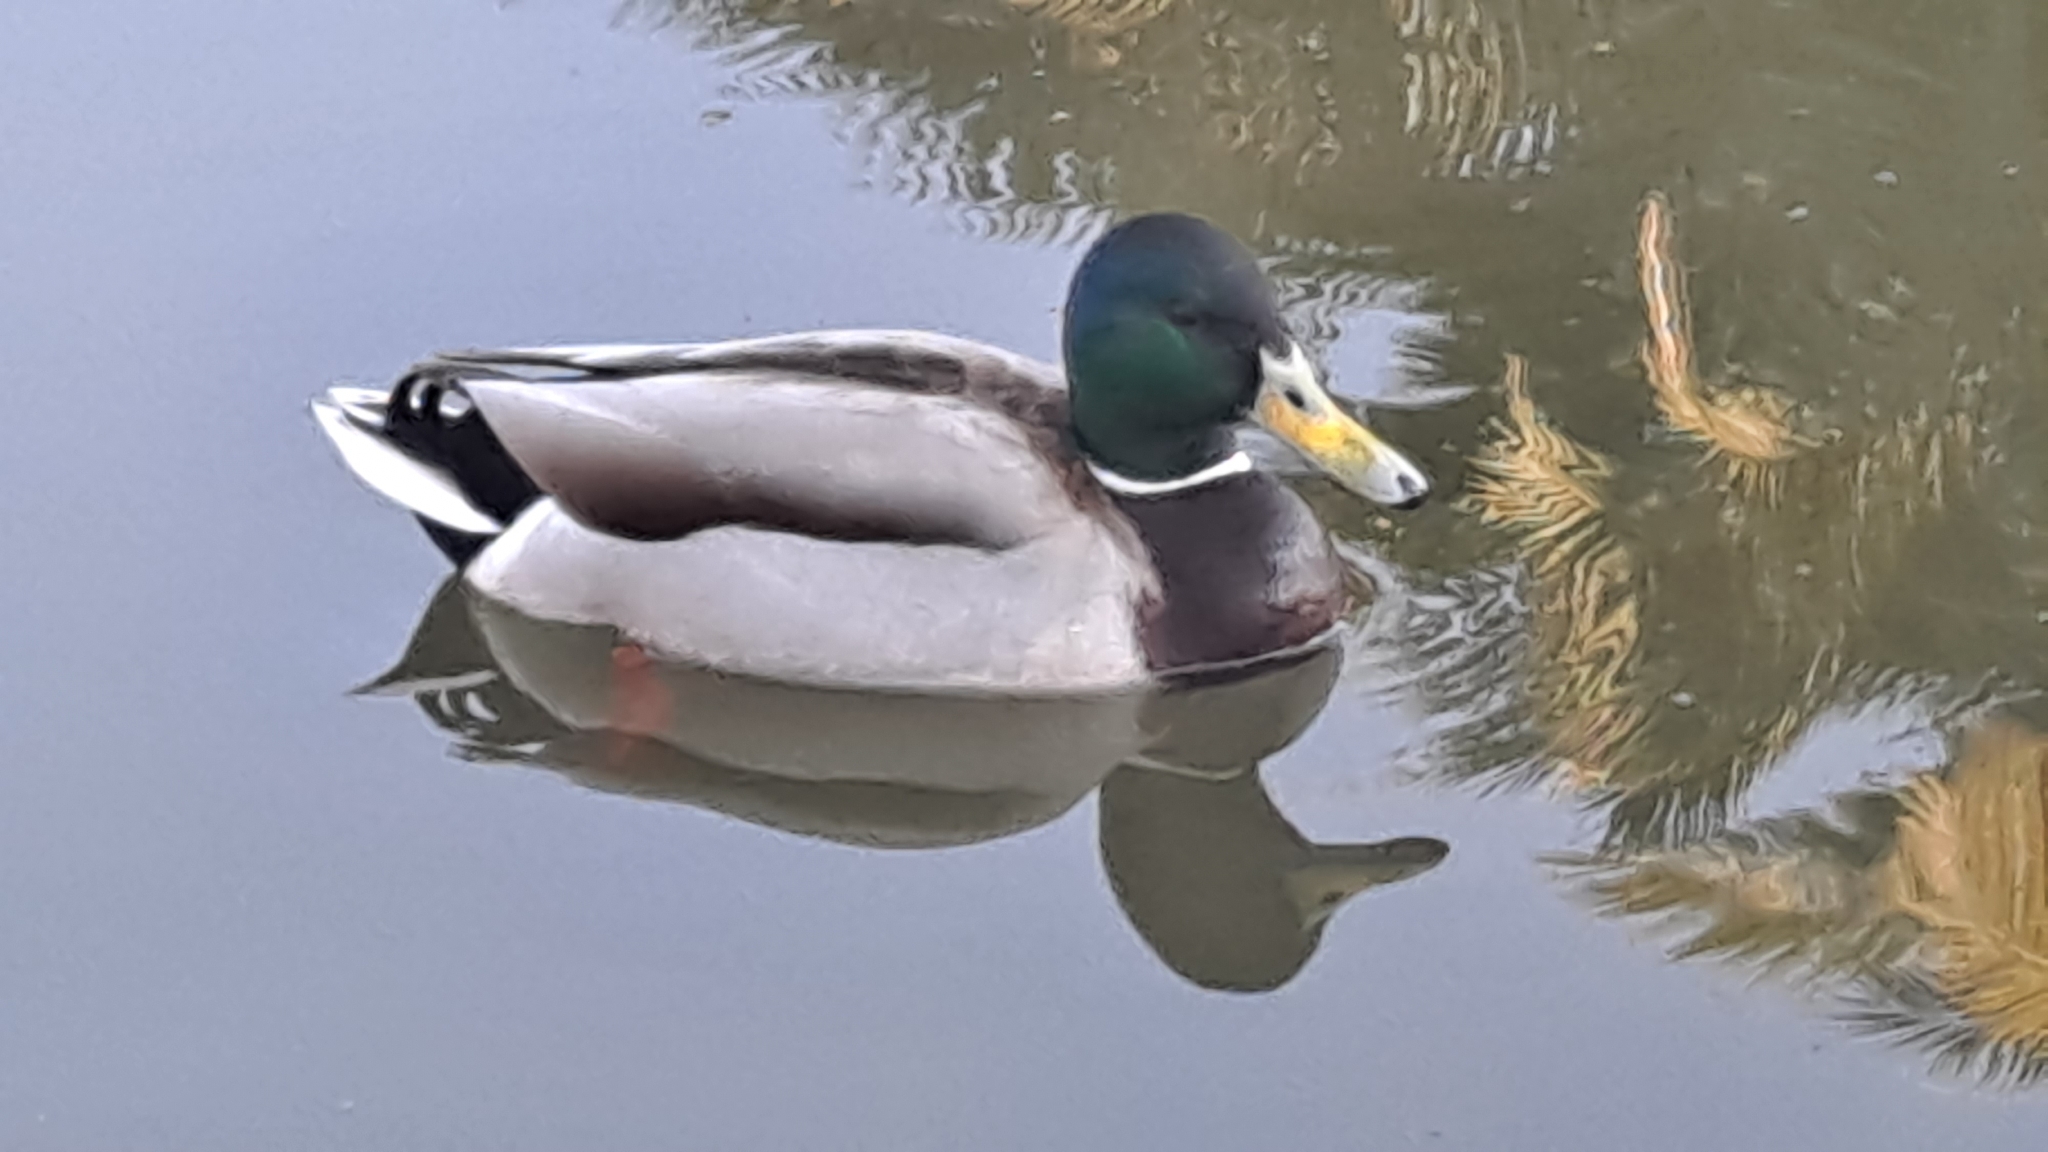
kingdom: Animalia
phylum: Chordata
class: Aves
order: Anseriformes
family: Anatidae
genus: Anas
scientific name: Anas platyrhynchos
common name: Mallard
